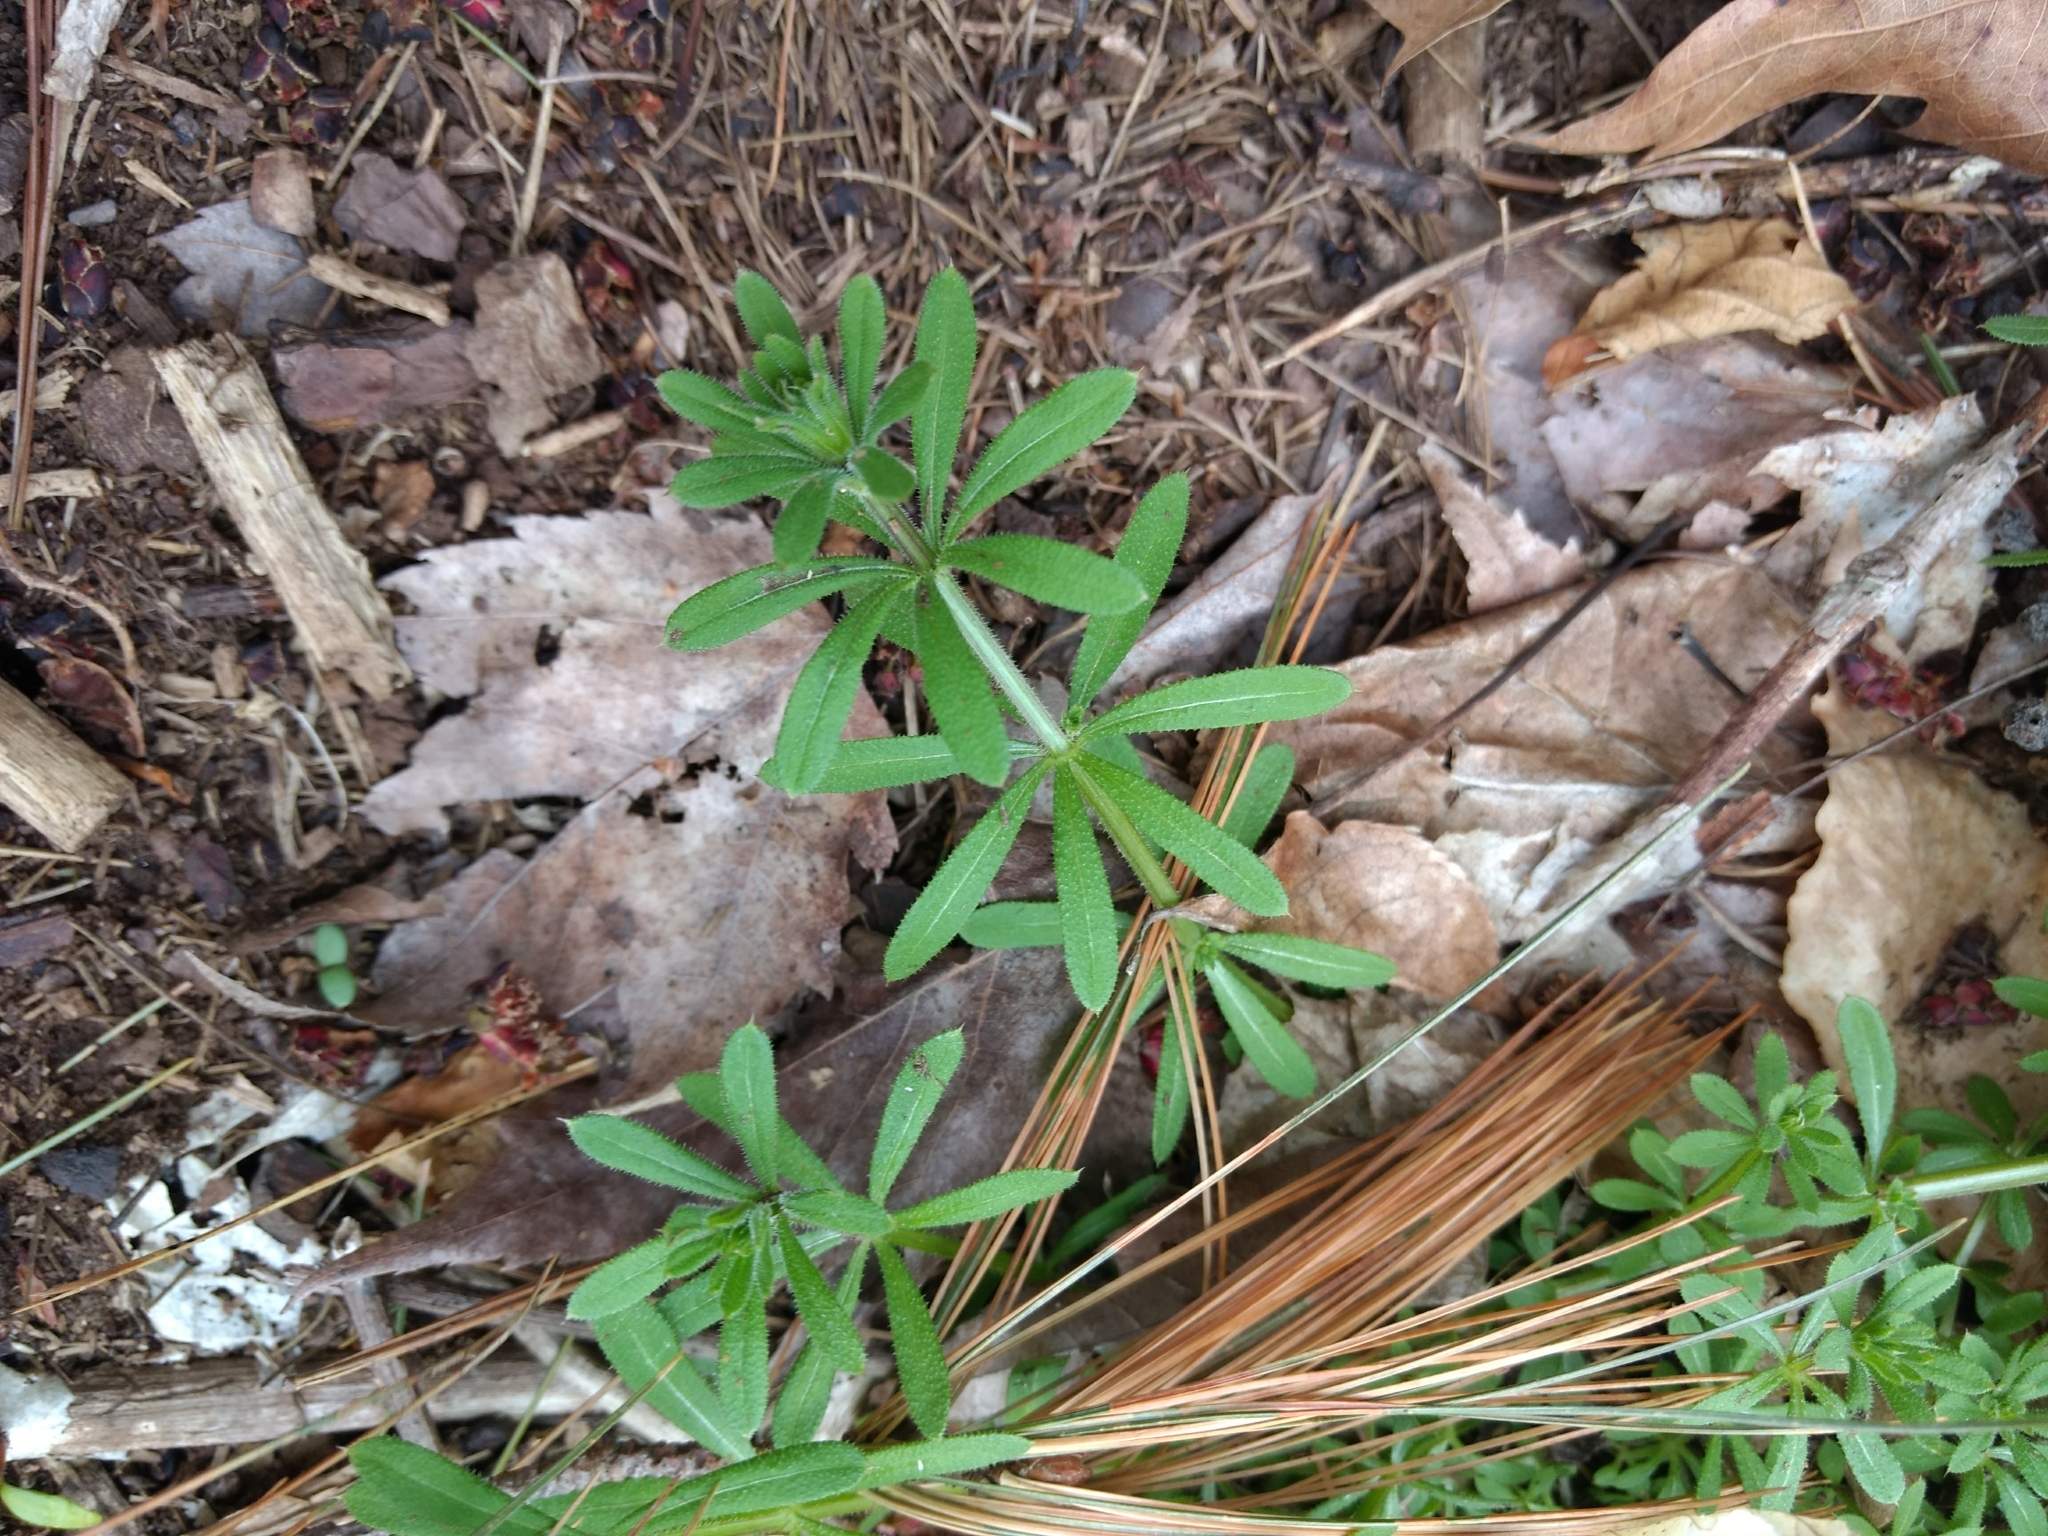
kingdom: Plantae
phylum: Tracheophyta
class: Magnoliopsida
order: Gentianales
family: Rubiaceae
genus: Galium
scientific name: Galium aparine
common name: Cleavers
